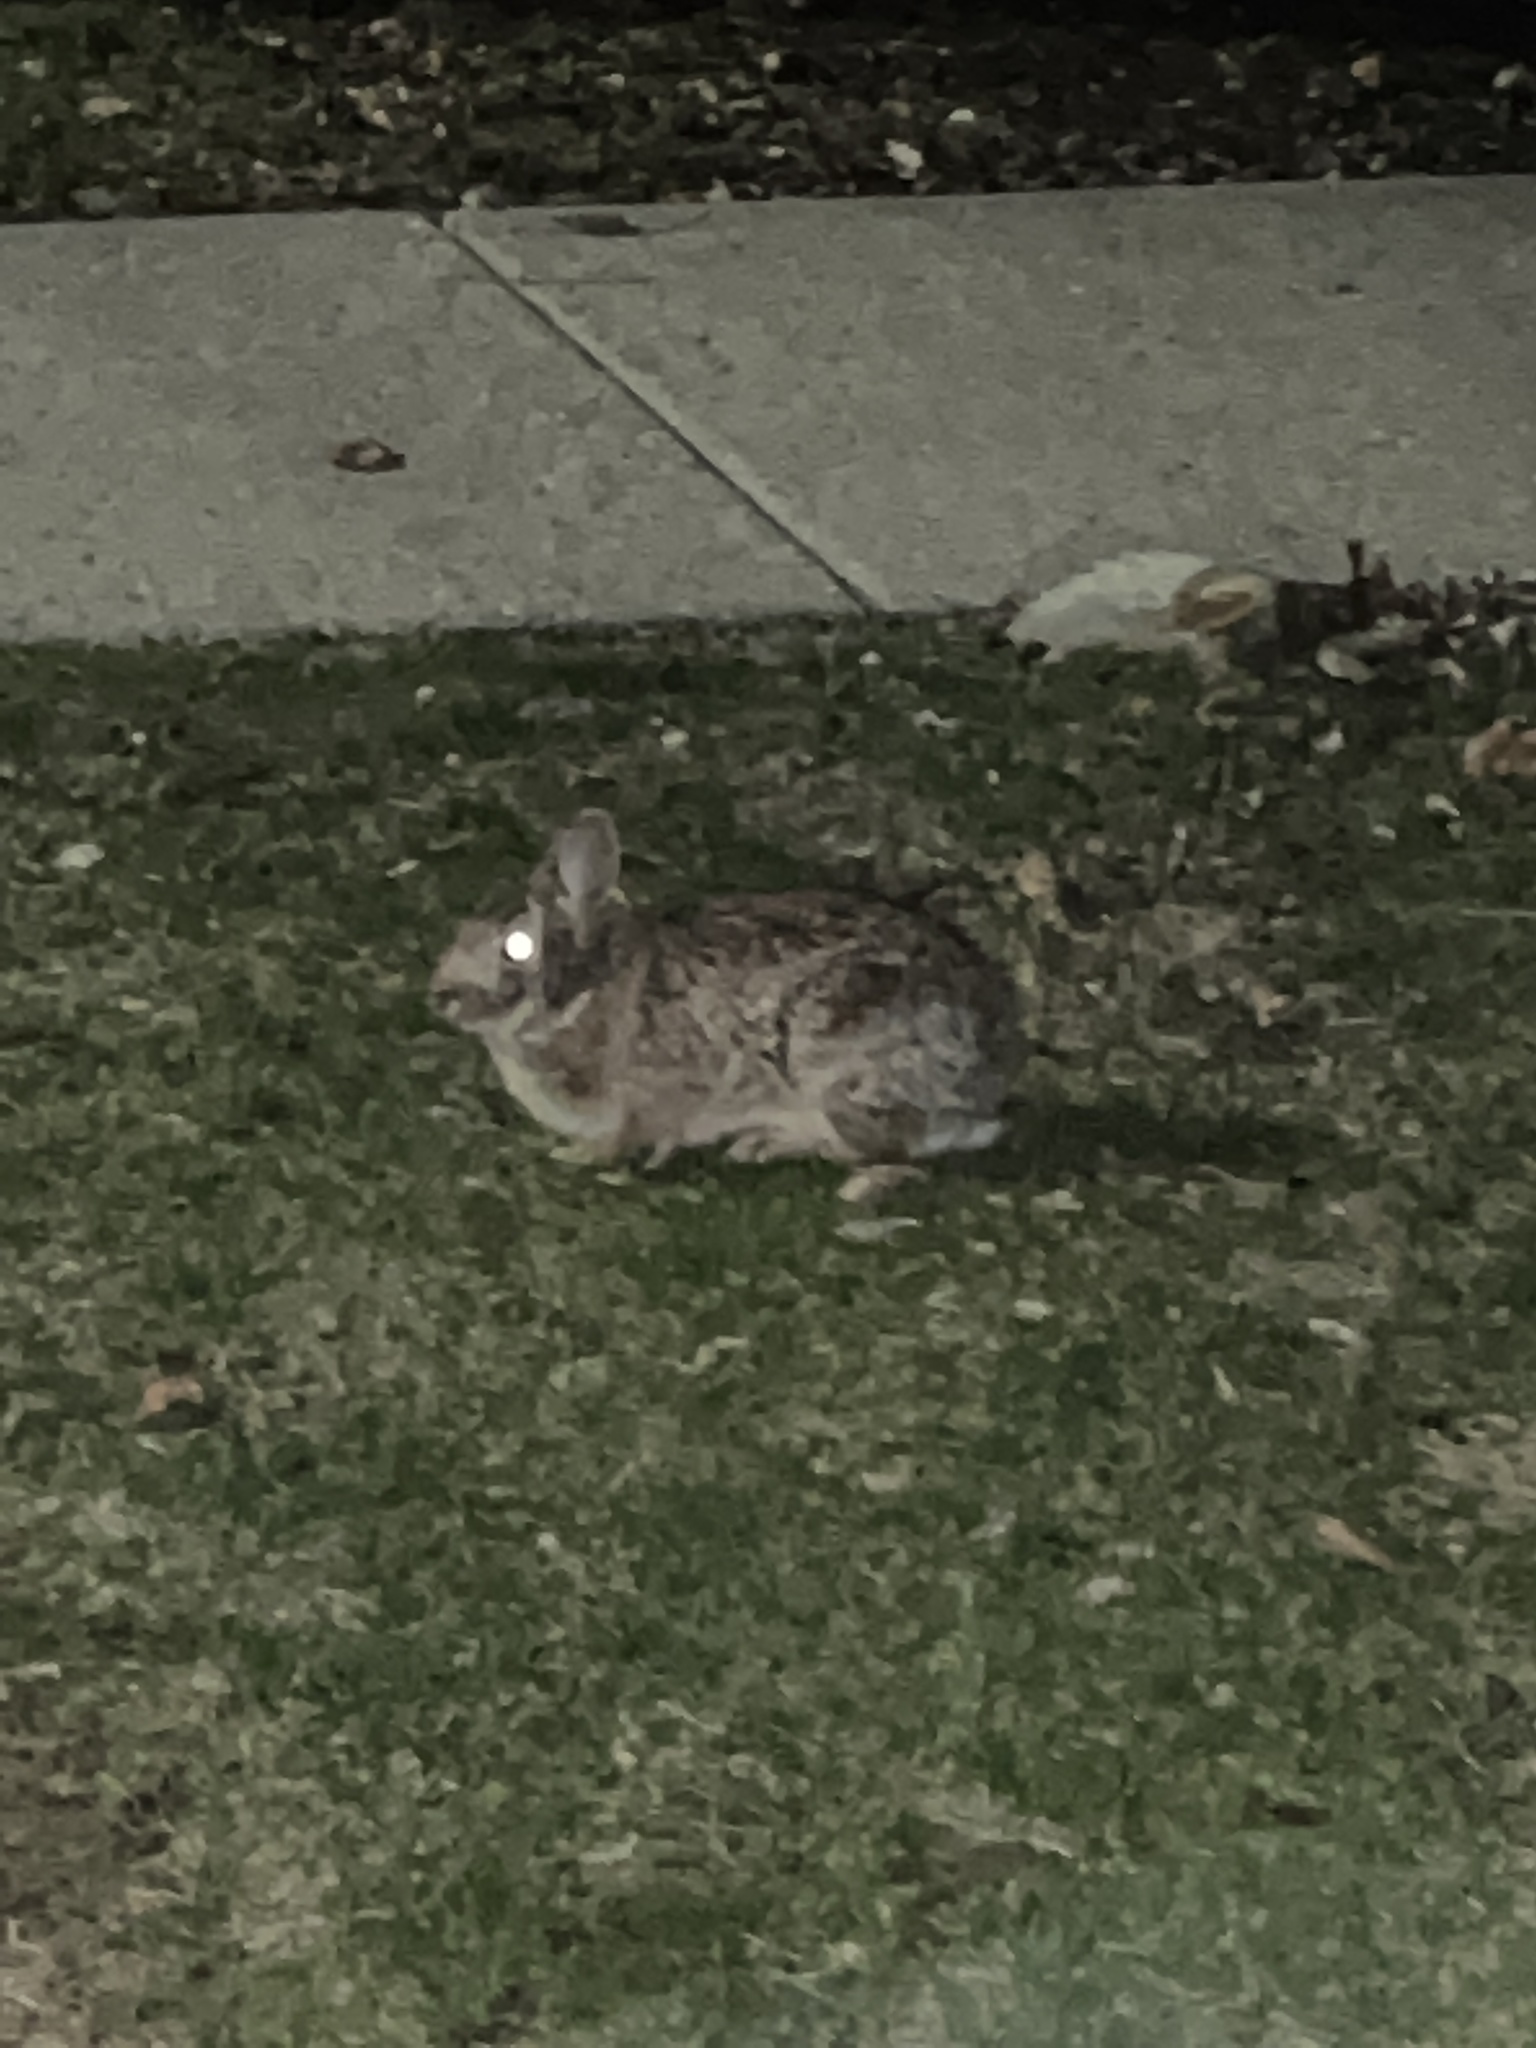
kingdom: Animalia
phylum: Chordata
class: Mammalia
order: Lagomorpha
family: Leporidae
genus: Sylvilagus
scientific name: Sylvilagus floridanus
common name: Eastern cottontail
